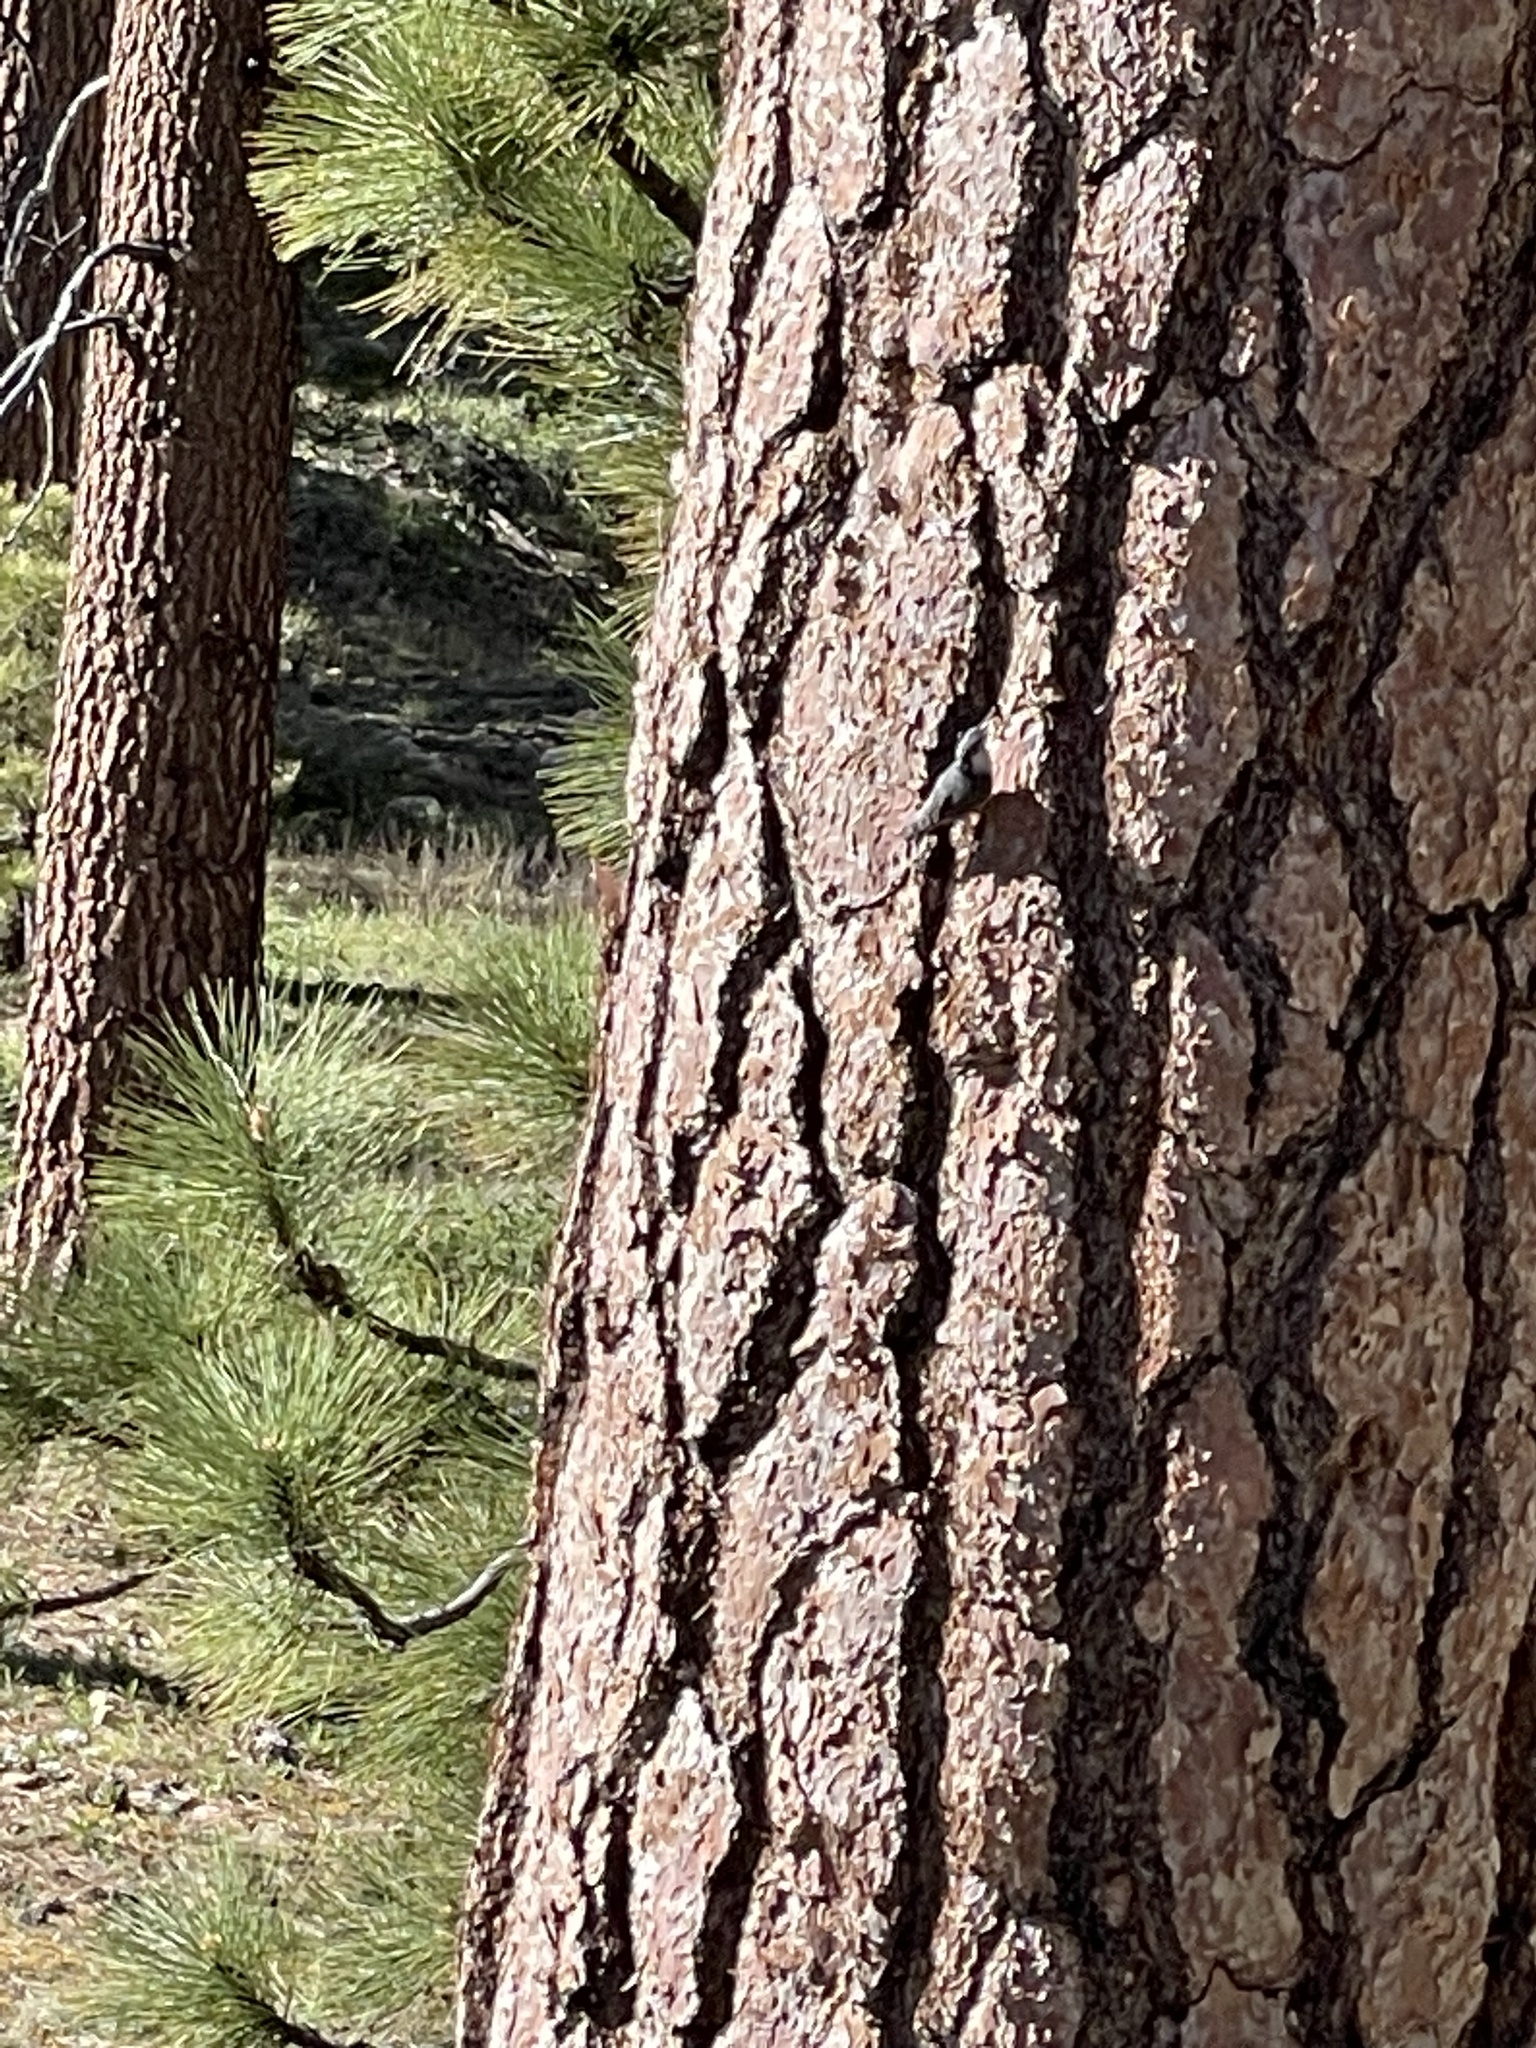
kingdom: Animalia
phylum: Chordata
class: Aves
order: Passeriformes
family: Sittidae
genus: Sitta
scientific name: Sitta pygmaea
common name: Pygmy nuthatch
